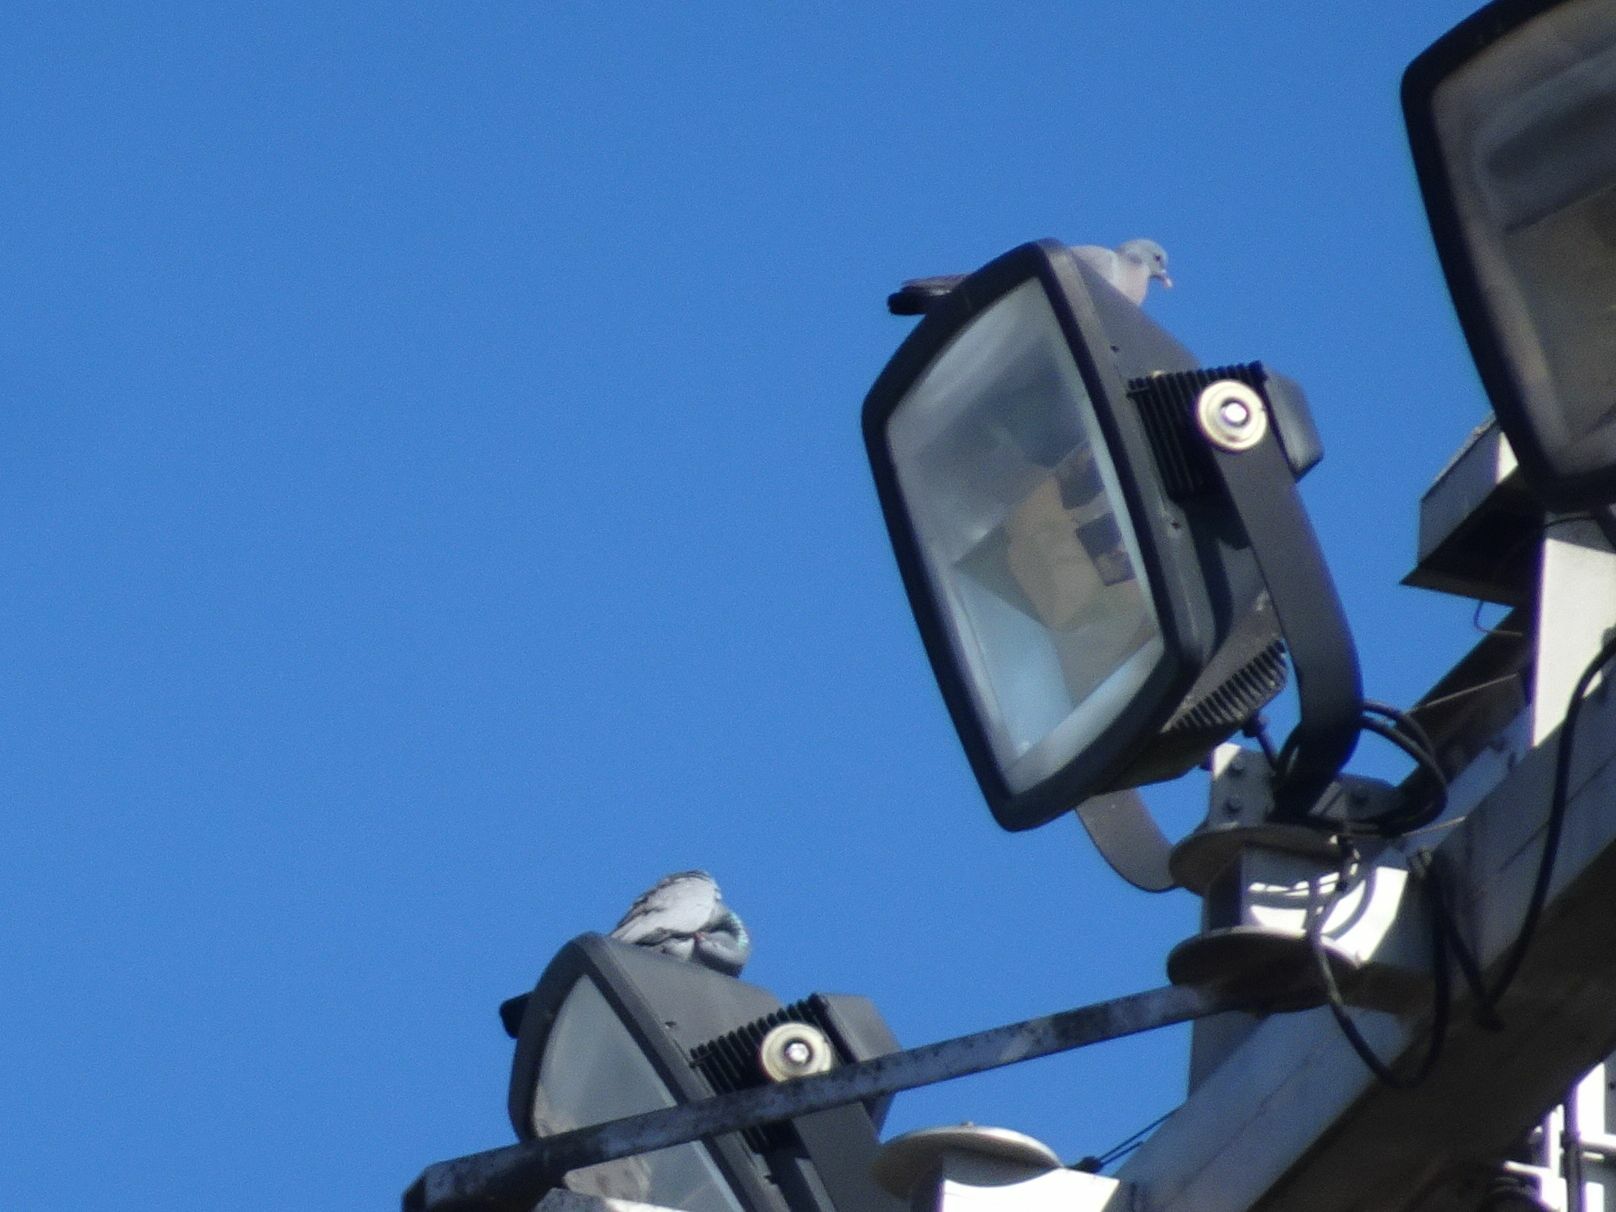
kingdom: Animalia
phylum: Chordata
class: Aves
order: Columbiformes
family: Columbidae
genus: Columba
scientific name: Columba oenas
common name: Stock dove
